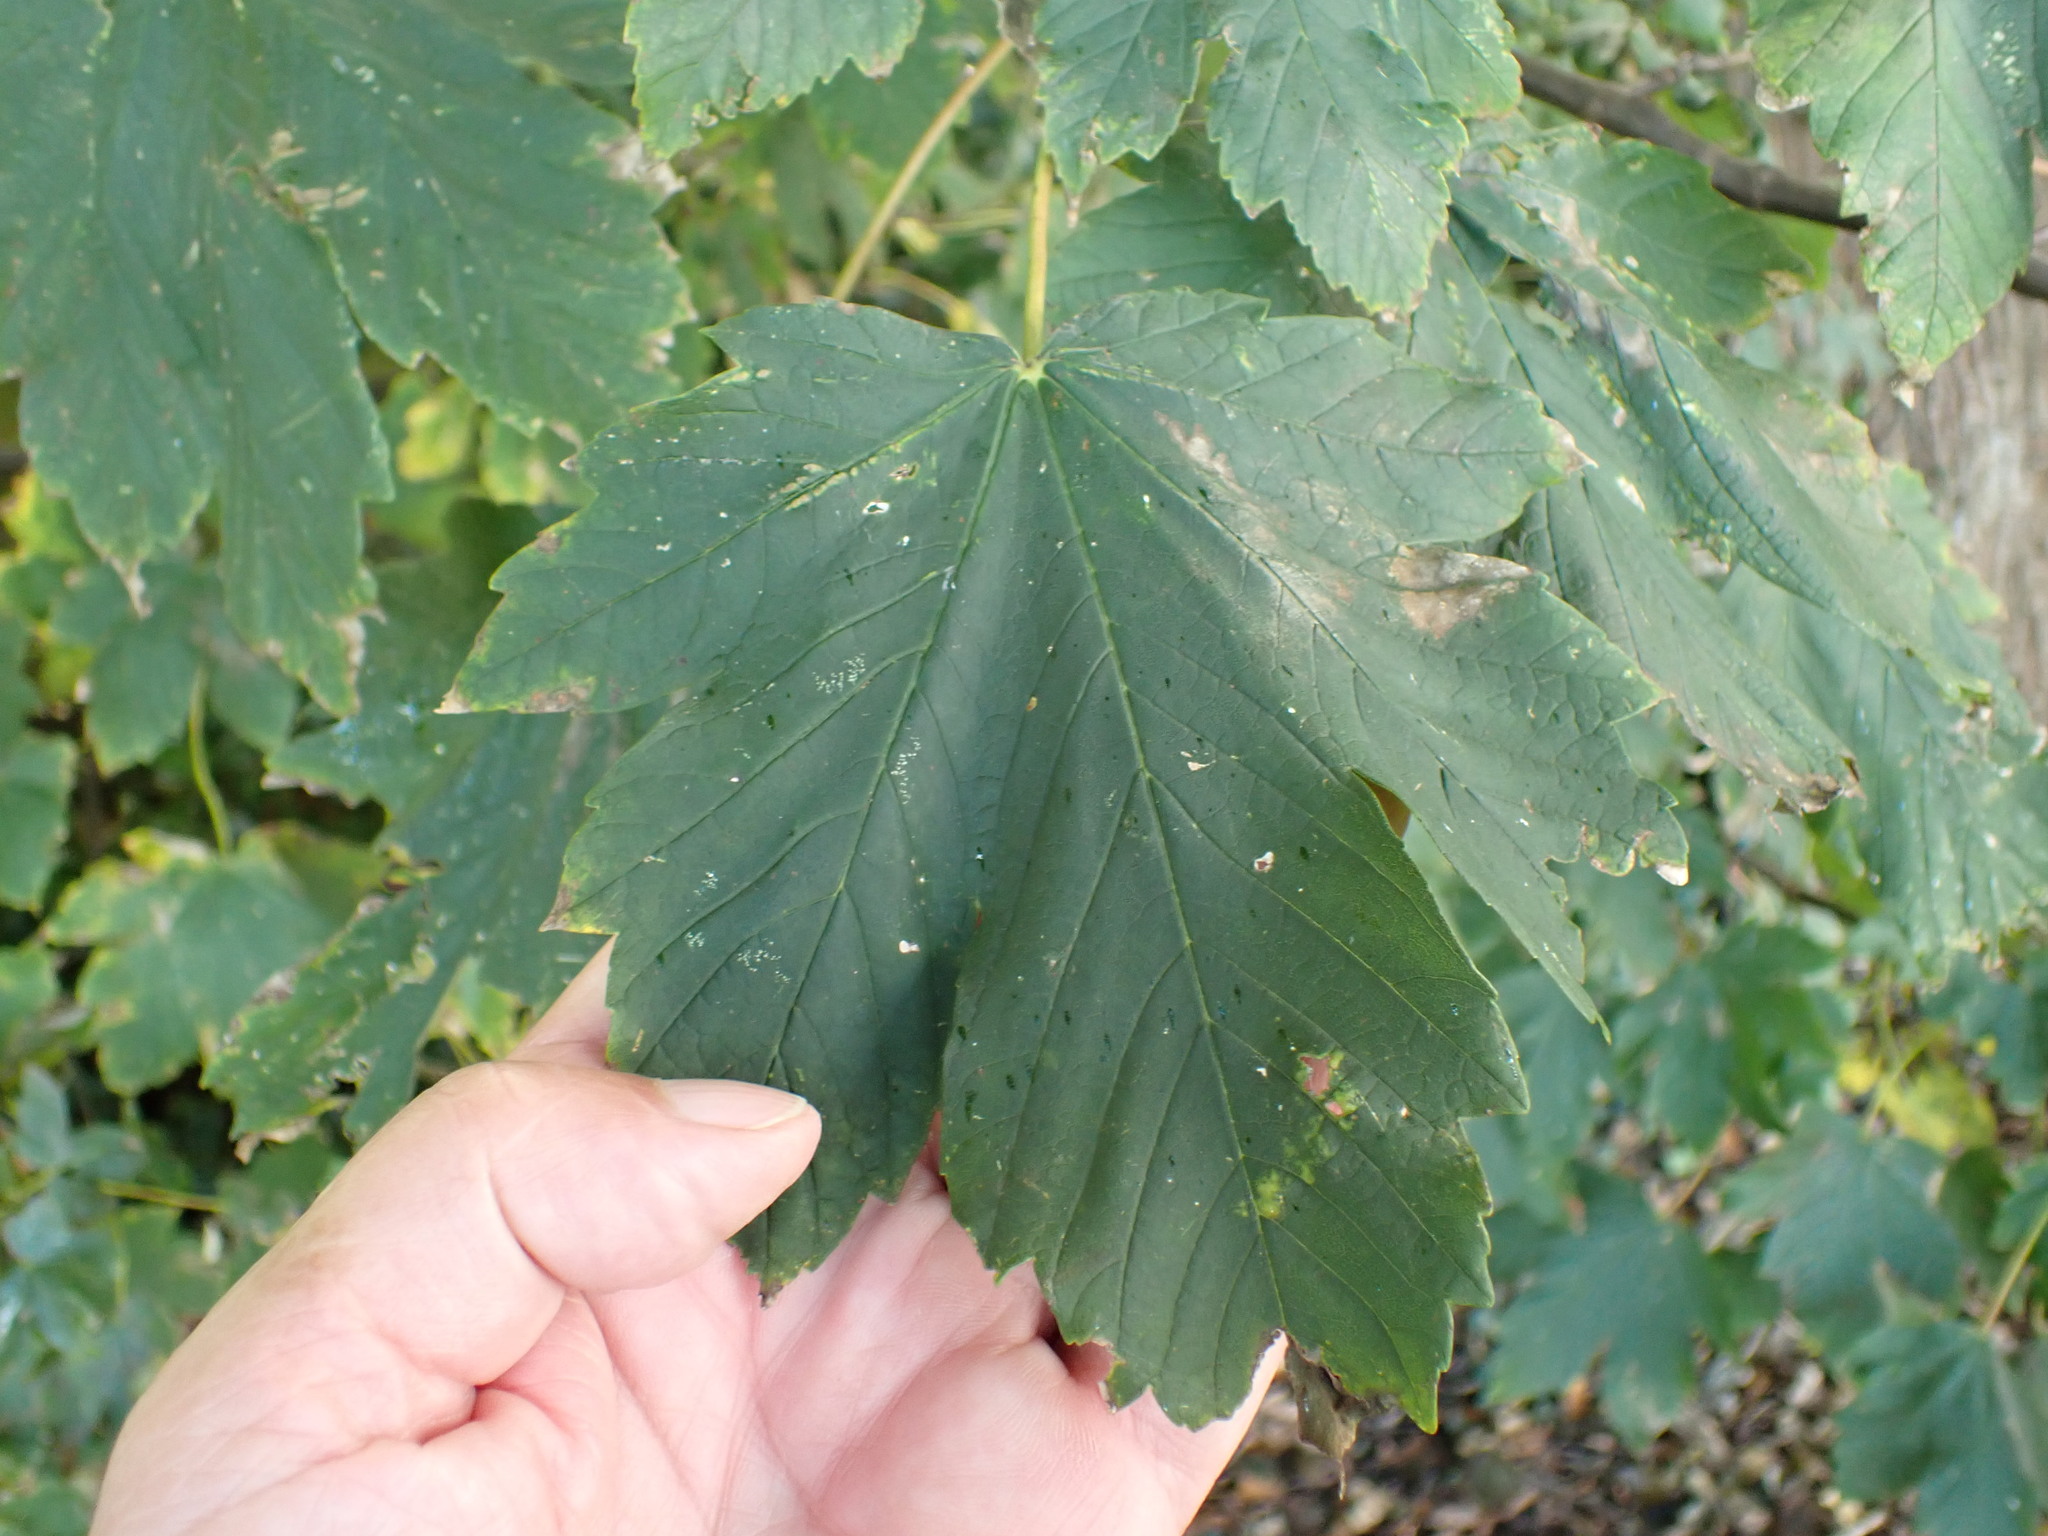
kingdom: Plantae
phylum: Tracheophyta
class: Magnoliopsida
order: Sapindales
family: Sapindaceae
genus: Acer
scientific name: Acer pseudoplatanus
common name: Sycamore
